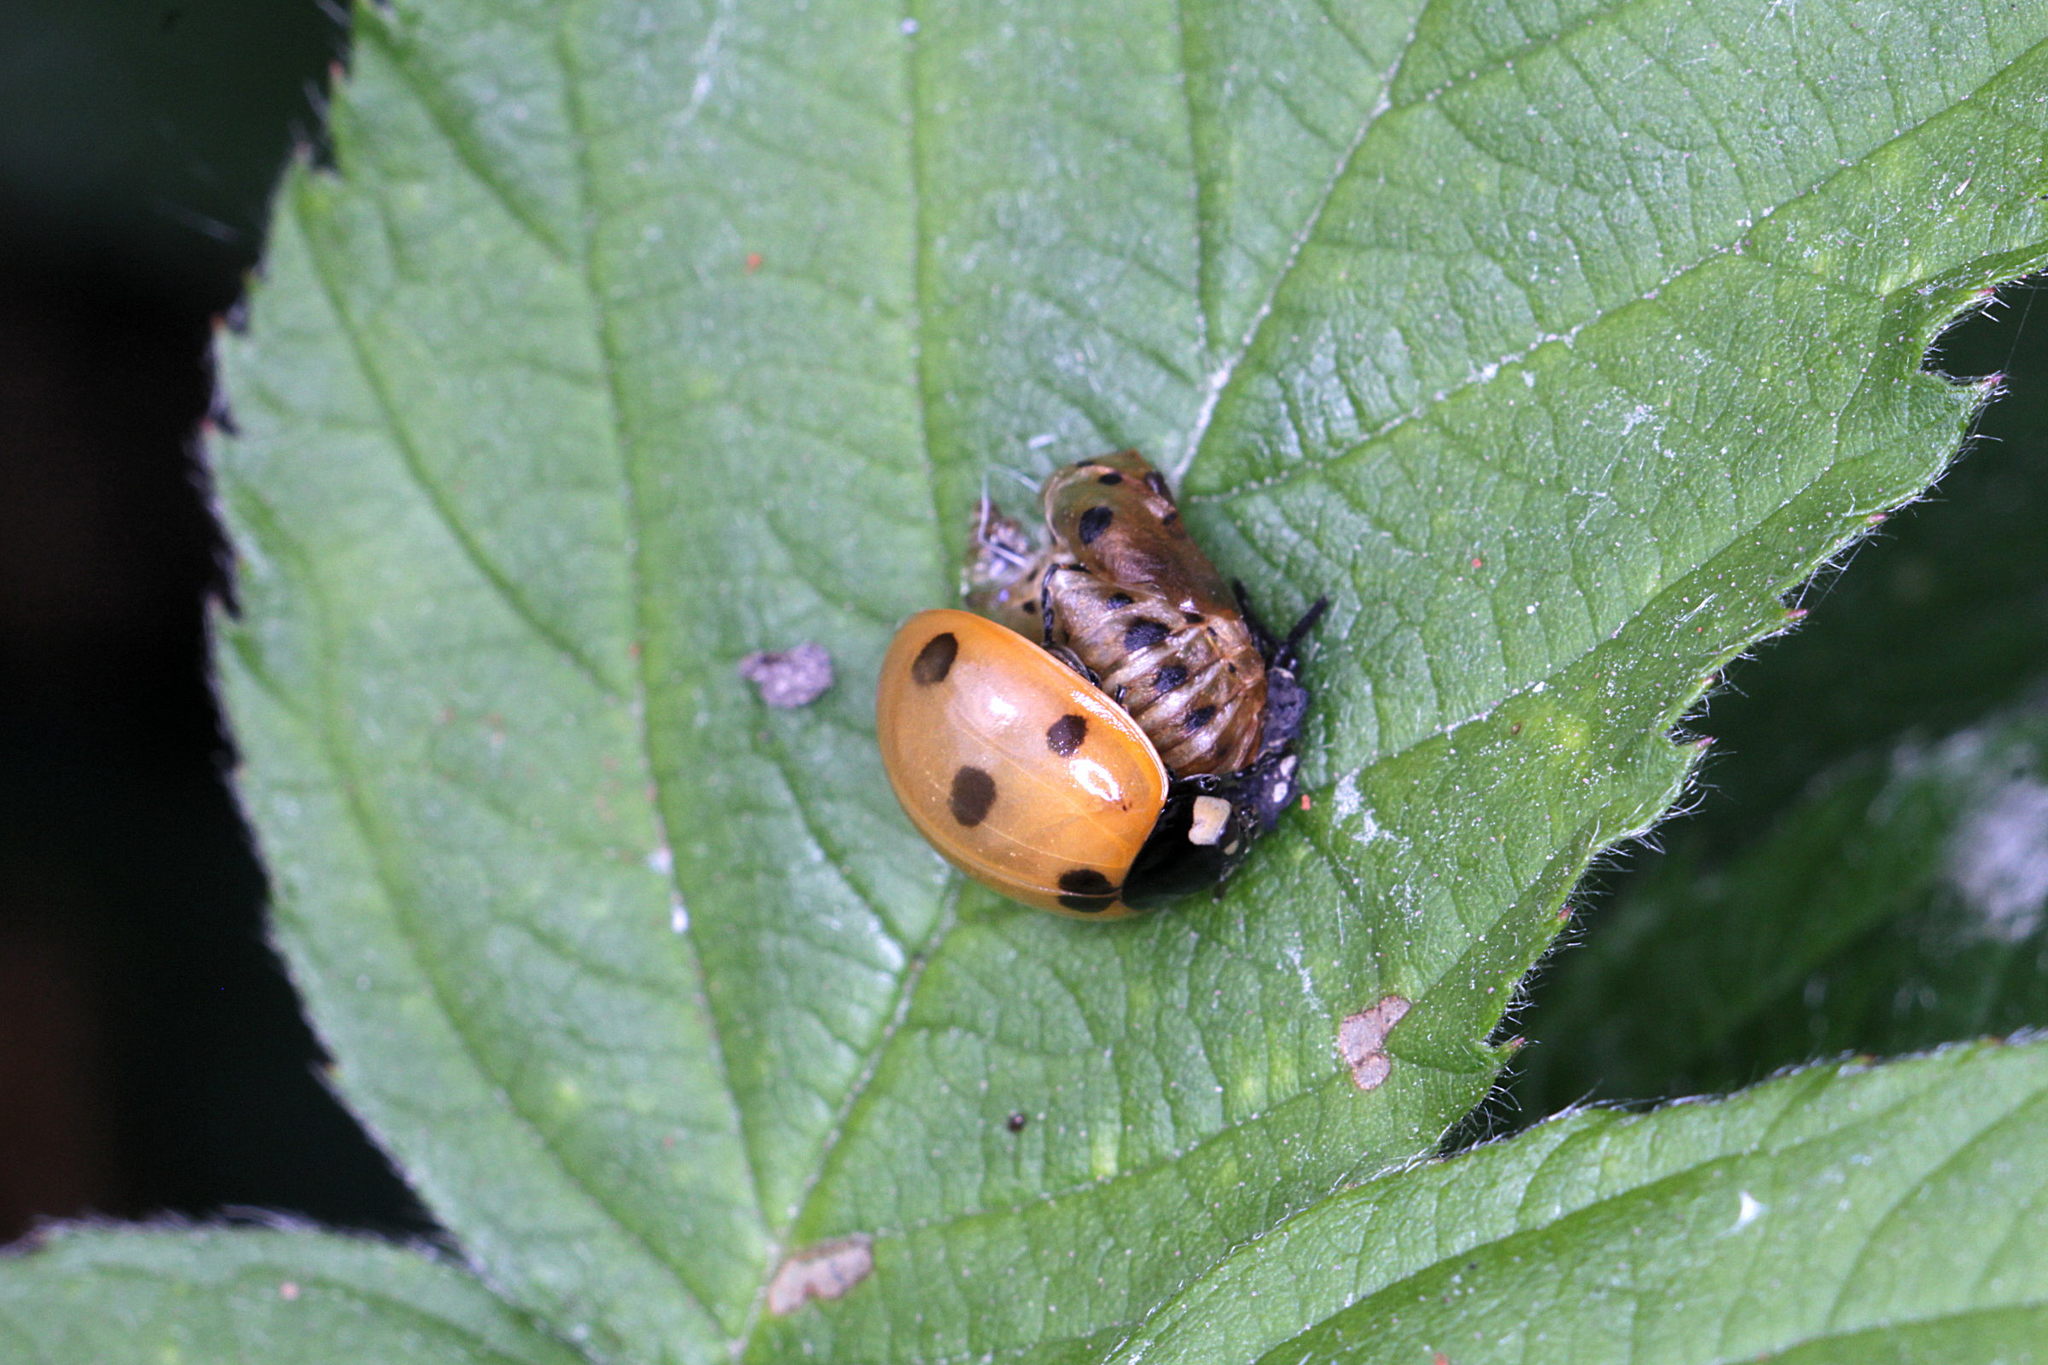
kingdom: Animalia
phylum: Arthropoda
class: Insecta
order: Coleoptera
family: Coccinellidae
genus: Coccinella
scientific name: Coccinella septempunctata
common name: Sevenspotted lady beetle
